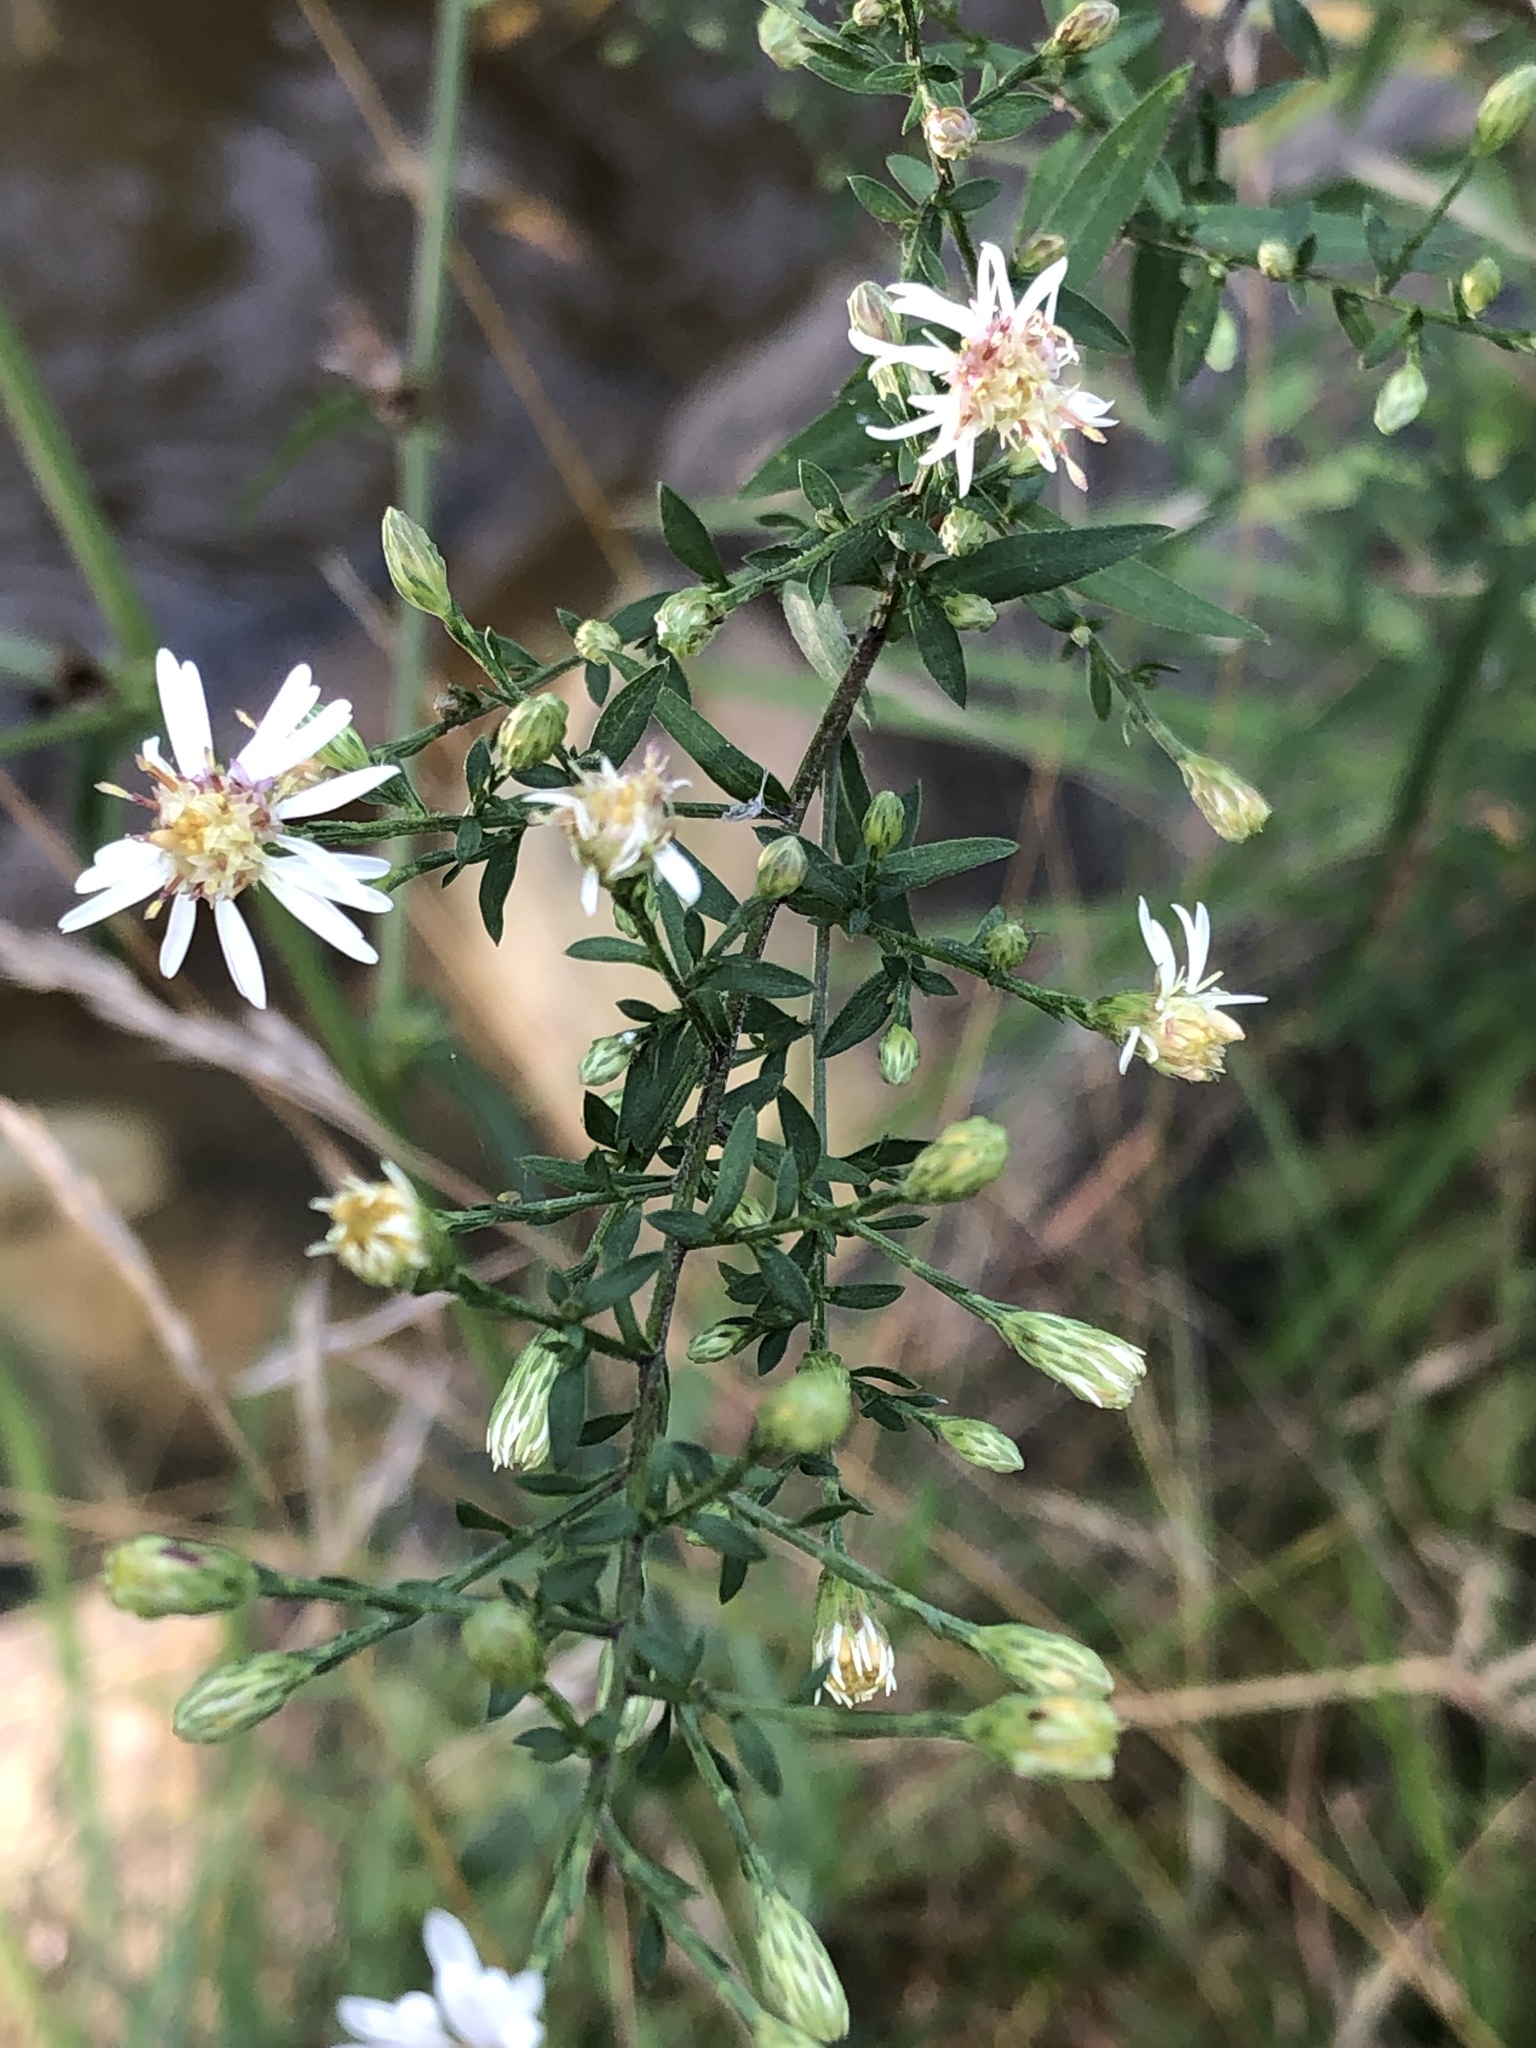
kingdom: Plantae
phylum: Tracheophyta
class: Magnoliopsida
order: Asterales
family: Asteraceae
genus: Symphyotrichum
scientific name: Symphyotrichum lateriflorum
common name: Calico aster
